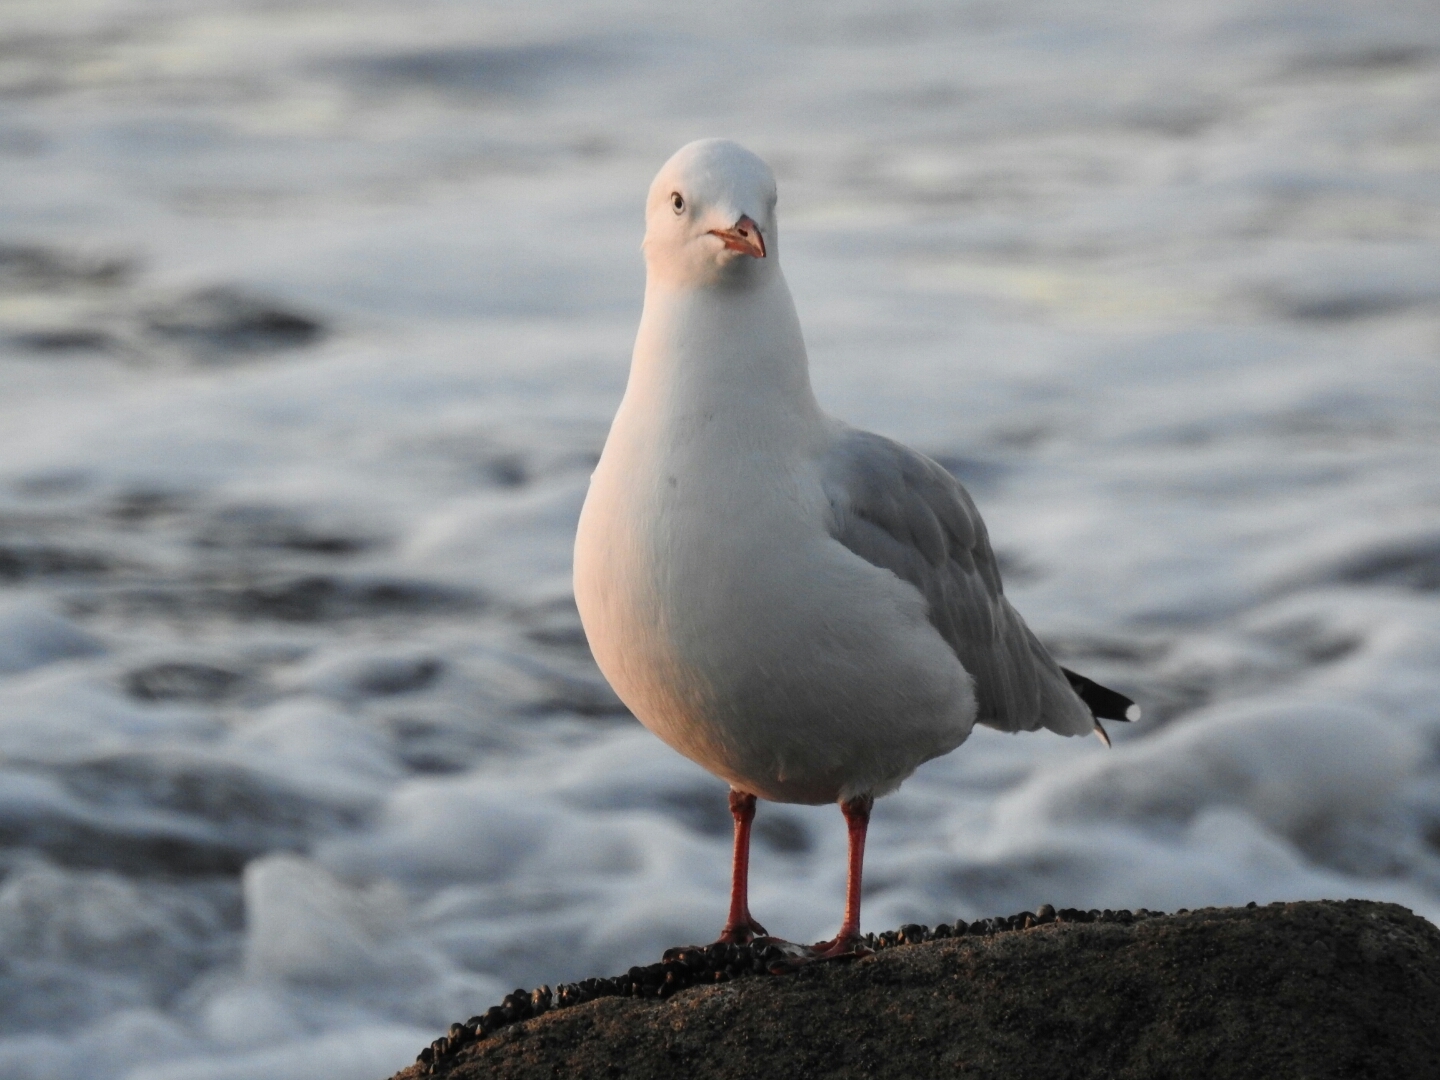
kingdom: Animalia
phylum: Chordata
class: Aves
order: Charadriiformes
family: Laridae
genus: Chroicocephalus
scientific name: Chroicocephalus novaehollandiae
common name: Silver gull
